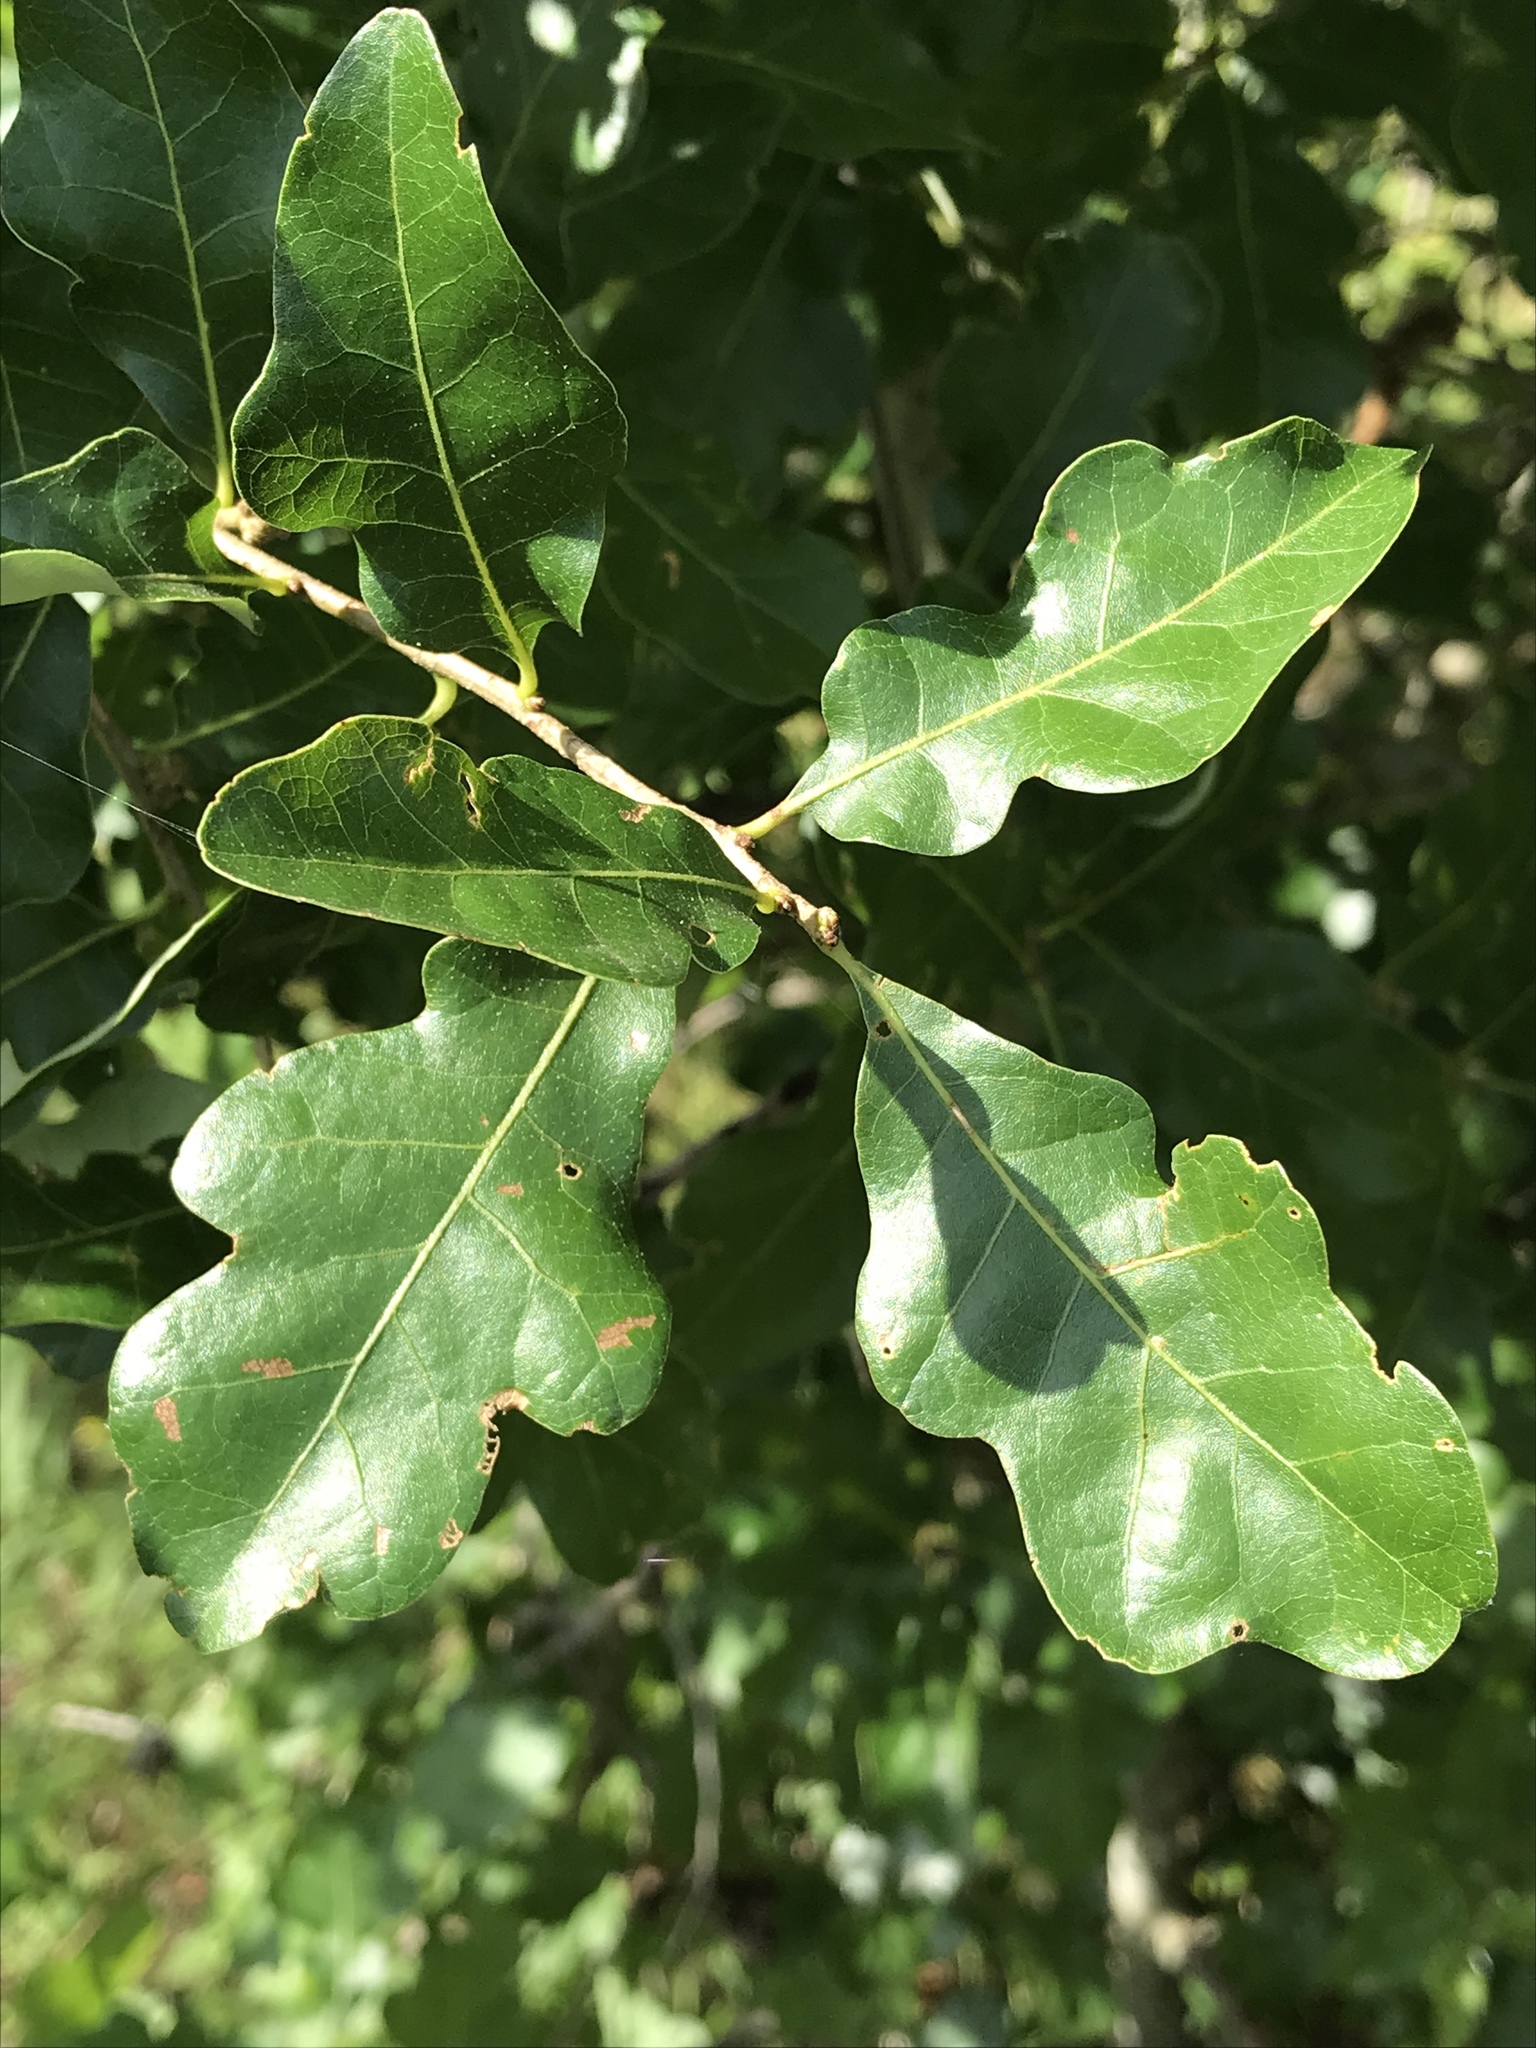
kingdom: Plantae
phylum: Tracheophyta
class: Magnoliopsida
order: Fagales
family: Fagaceae
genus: Quercus
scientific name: Quercus sinuata
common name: Durand oak
